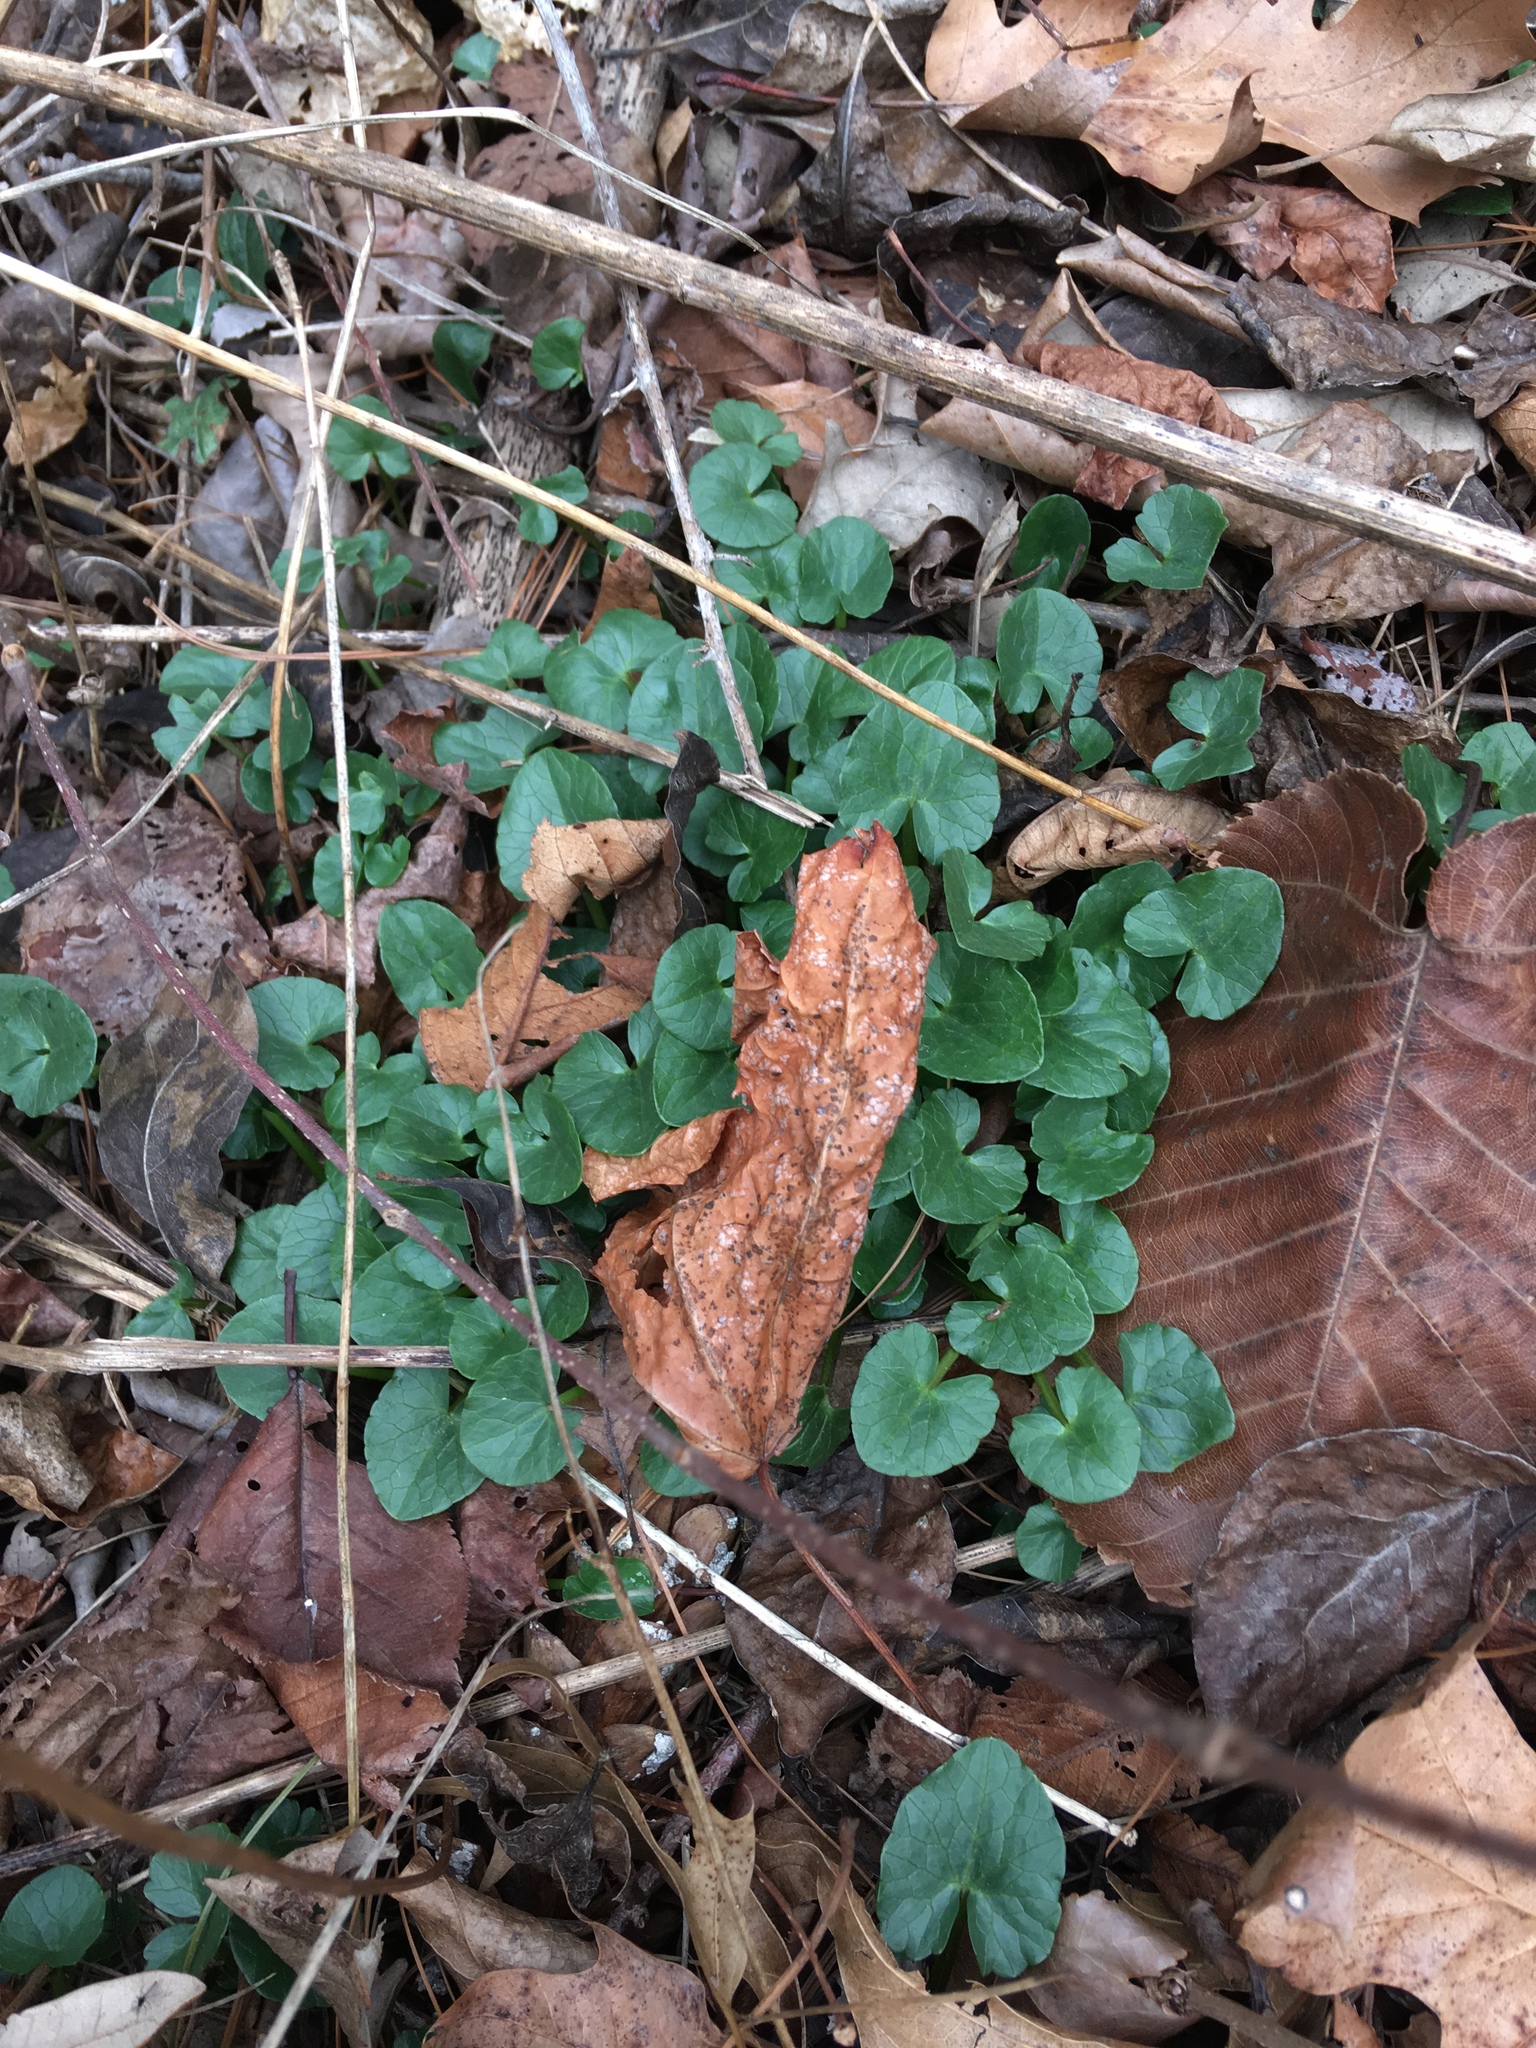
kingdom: Plantae
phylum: Tracheophyta
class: Magnoliopsida
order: Ranunculales
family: Ranunculaceae
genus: Ficaria
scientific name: Ficaria verna
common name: Lesser celandine
